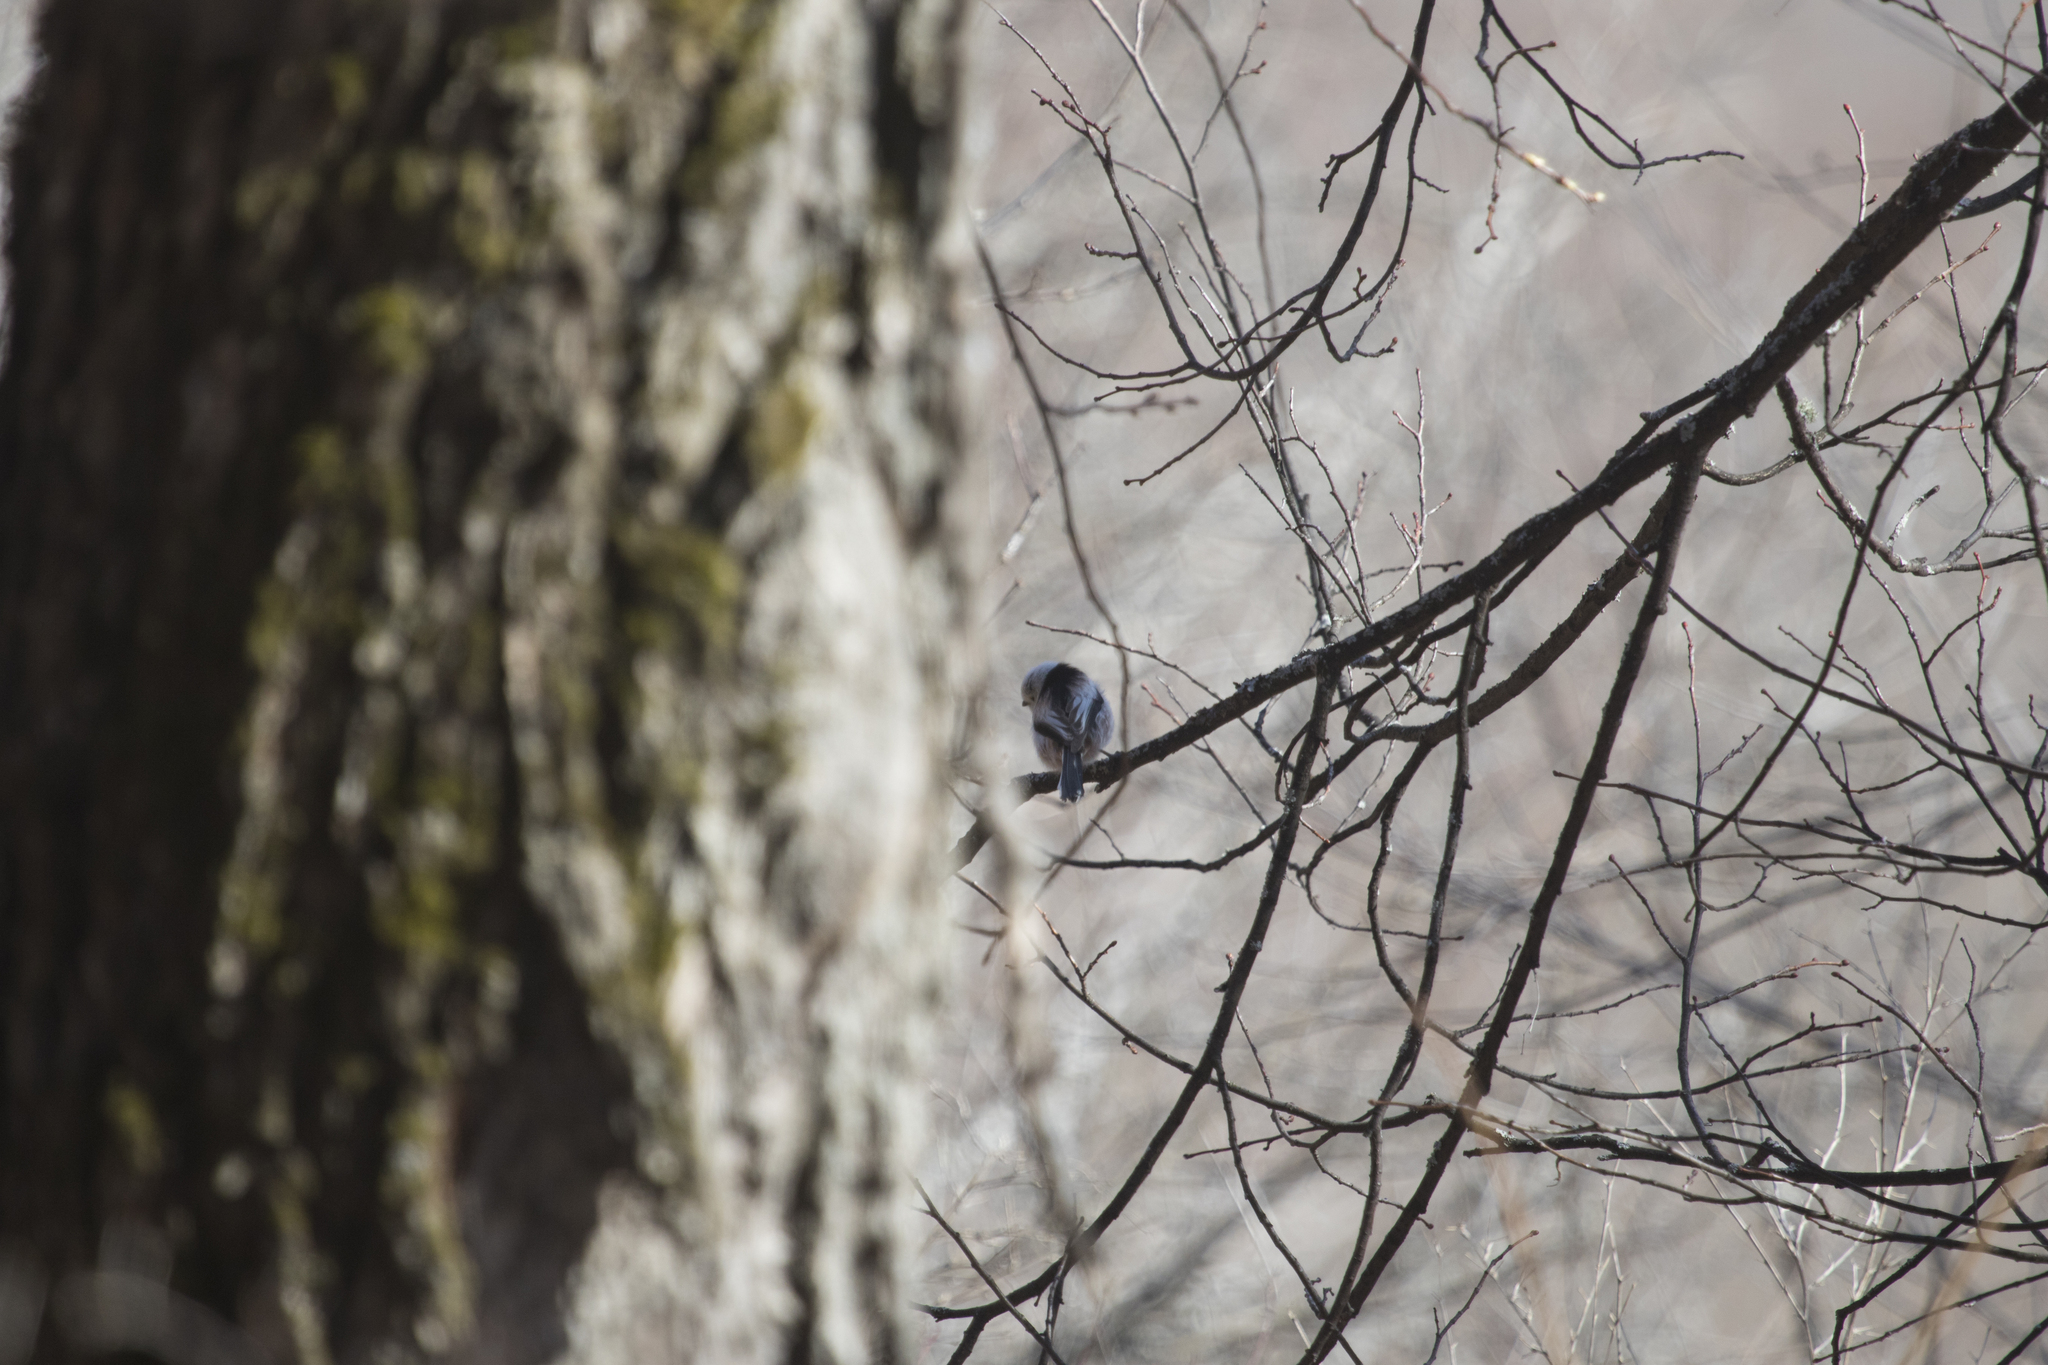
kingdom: Animalia
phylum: Chordata
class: Aves
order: Passeriformes
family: Aegithalidae
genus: Aegithalos
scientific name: Aegithalos caudatus
